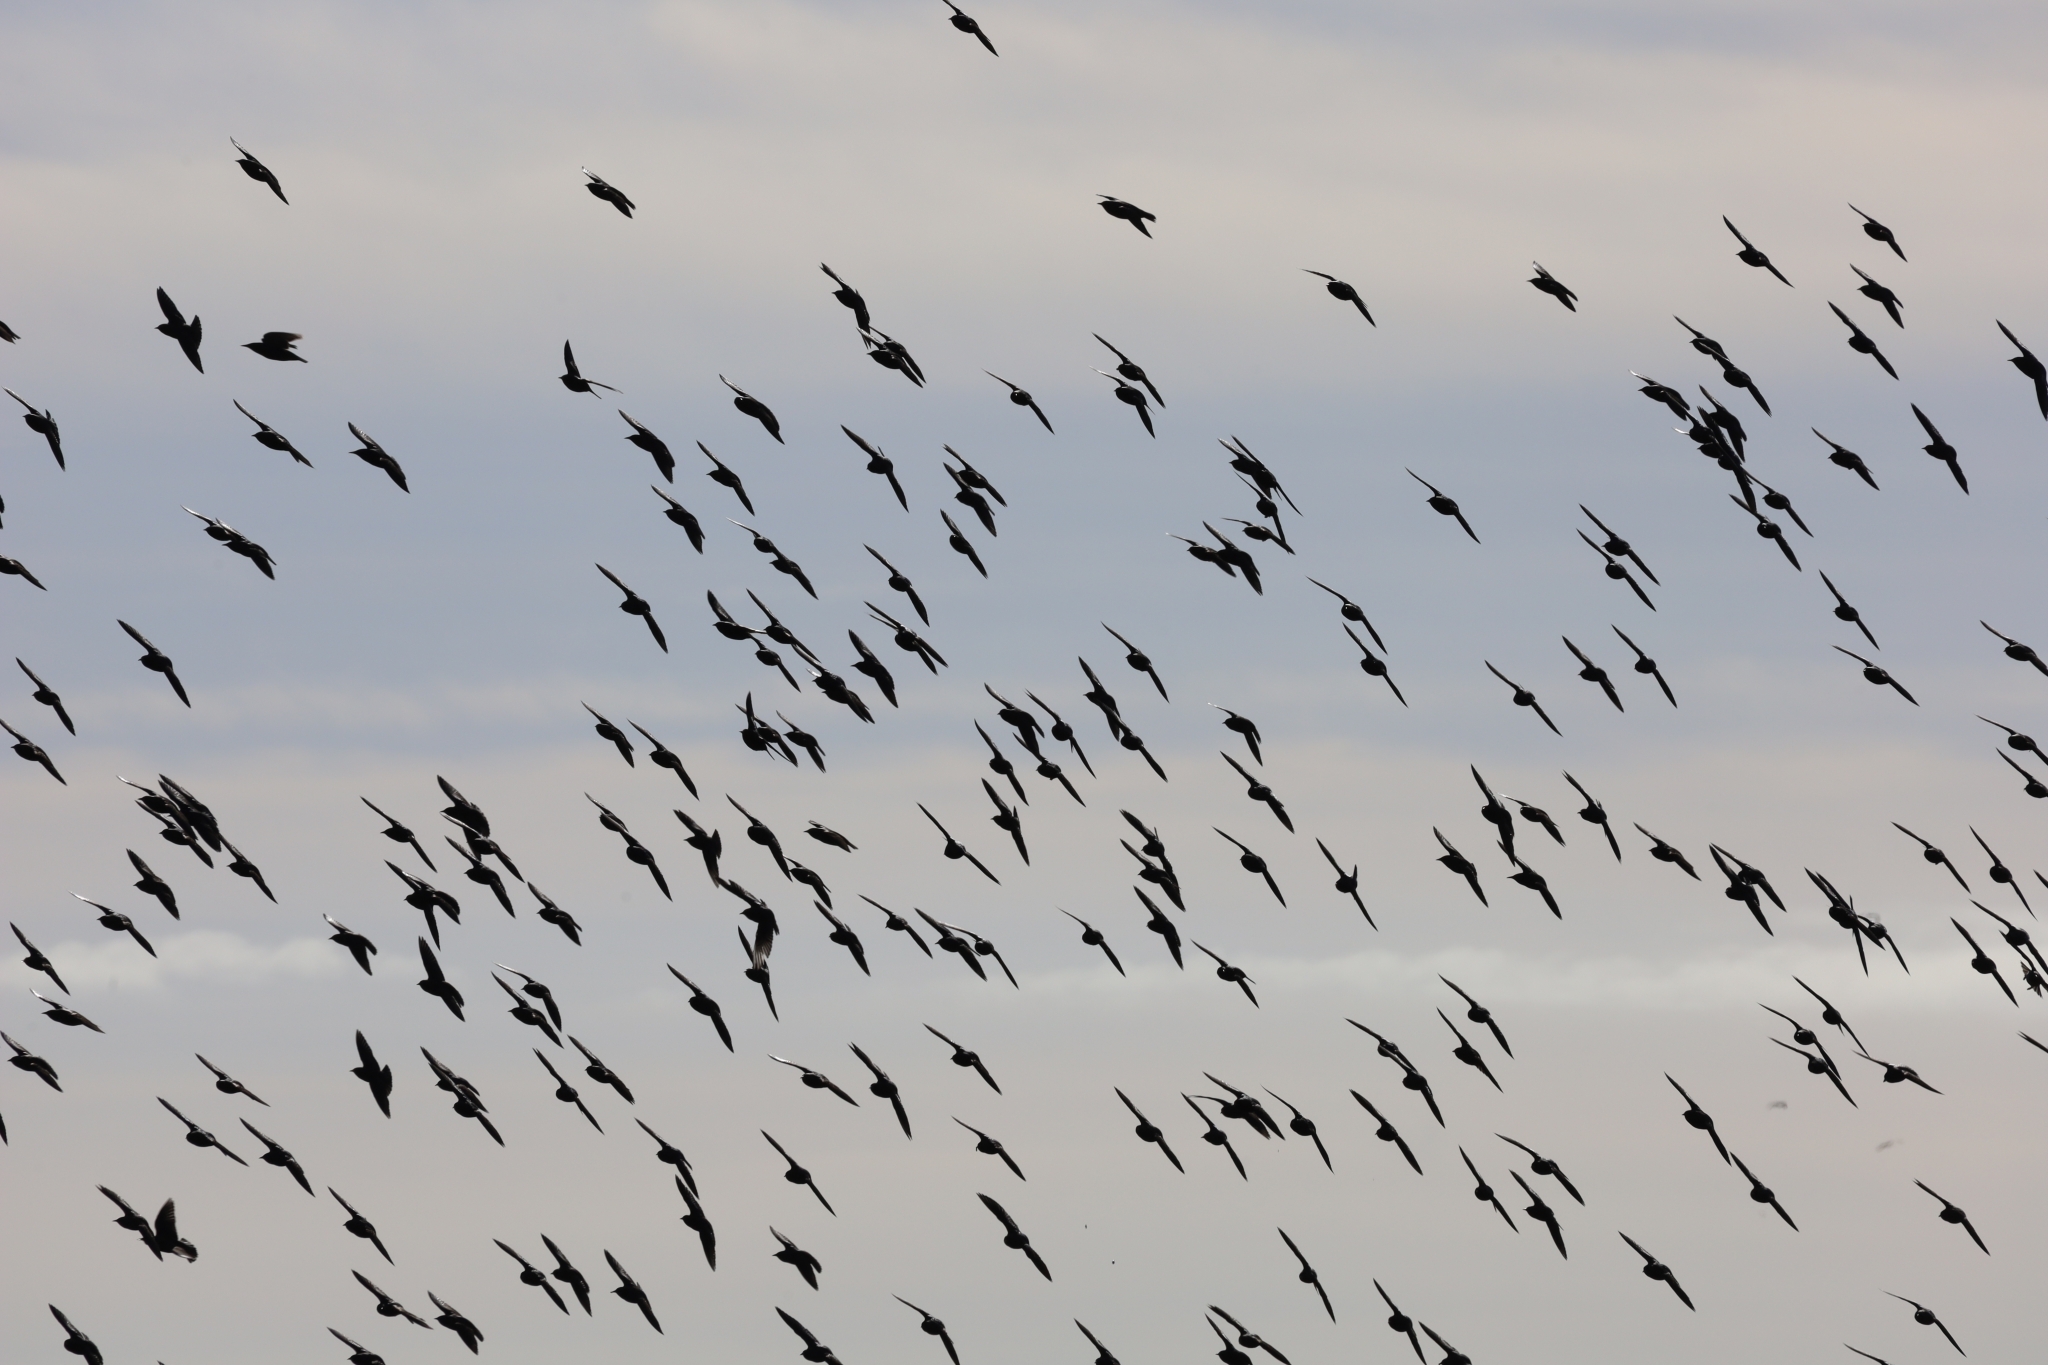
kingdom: Animalia
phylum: Chordata
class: Aves
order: Passeriformes
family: Sturnidae
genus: Sturnus
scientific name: Sturnus vulgaris
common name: Common starling
